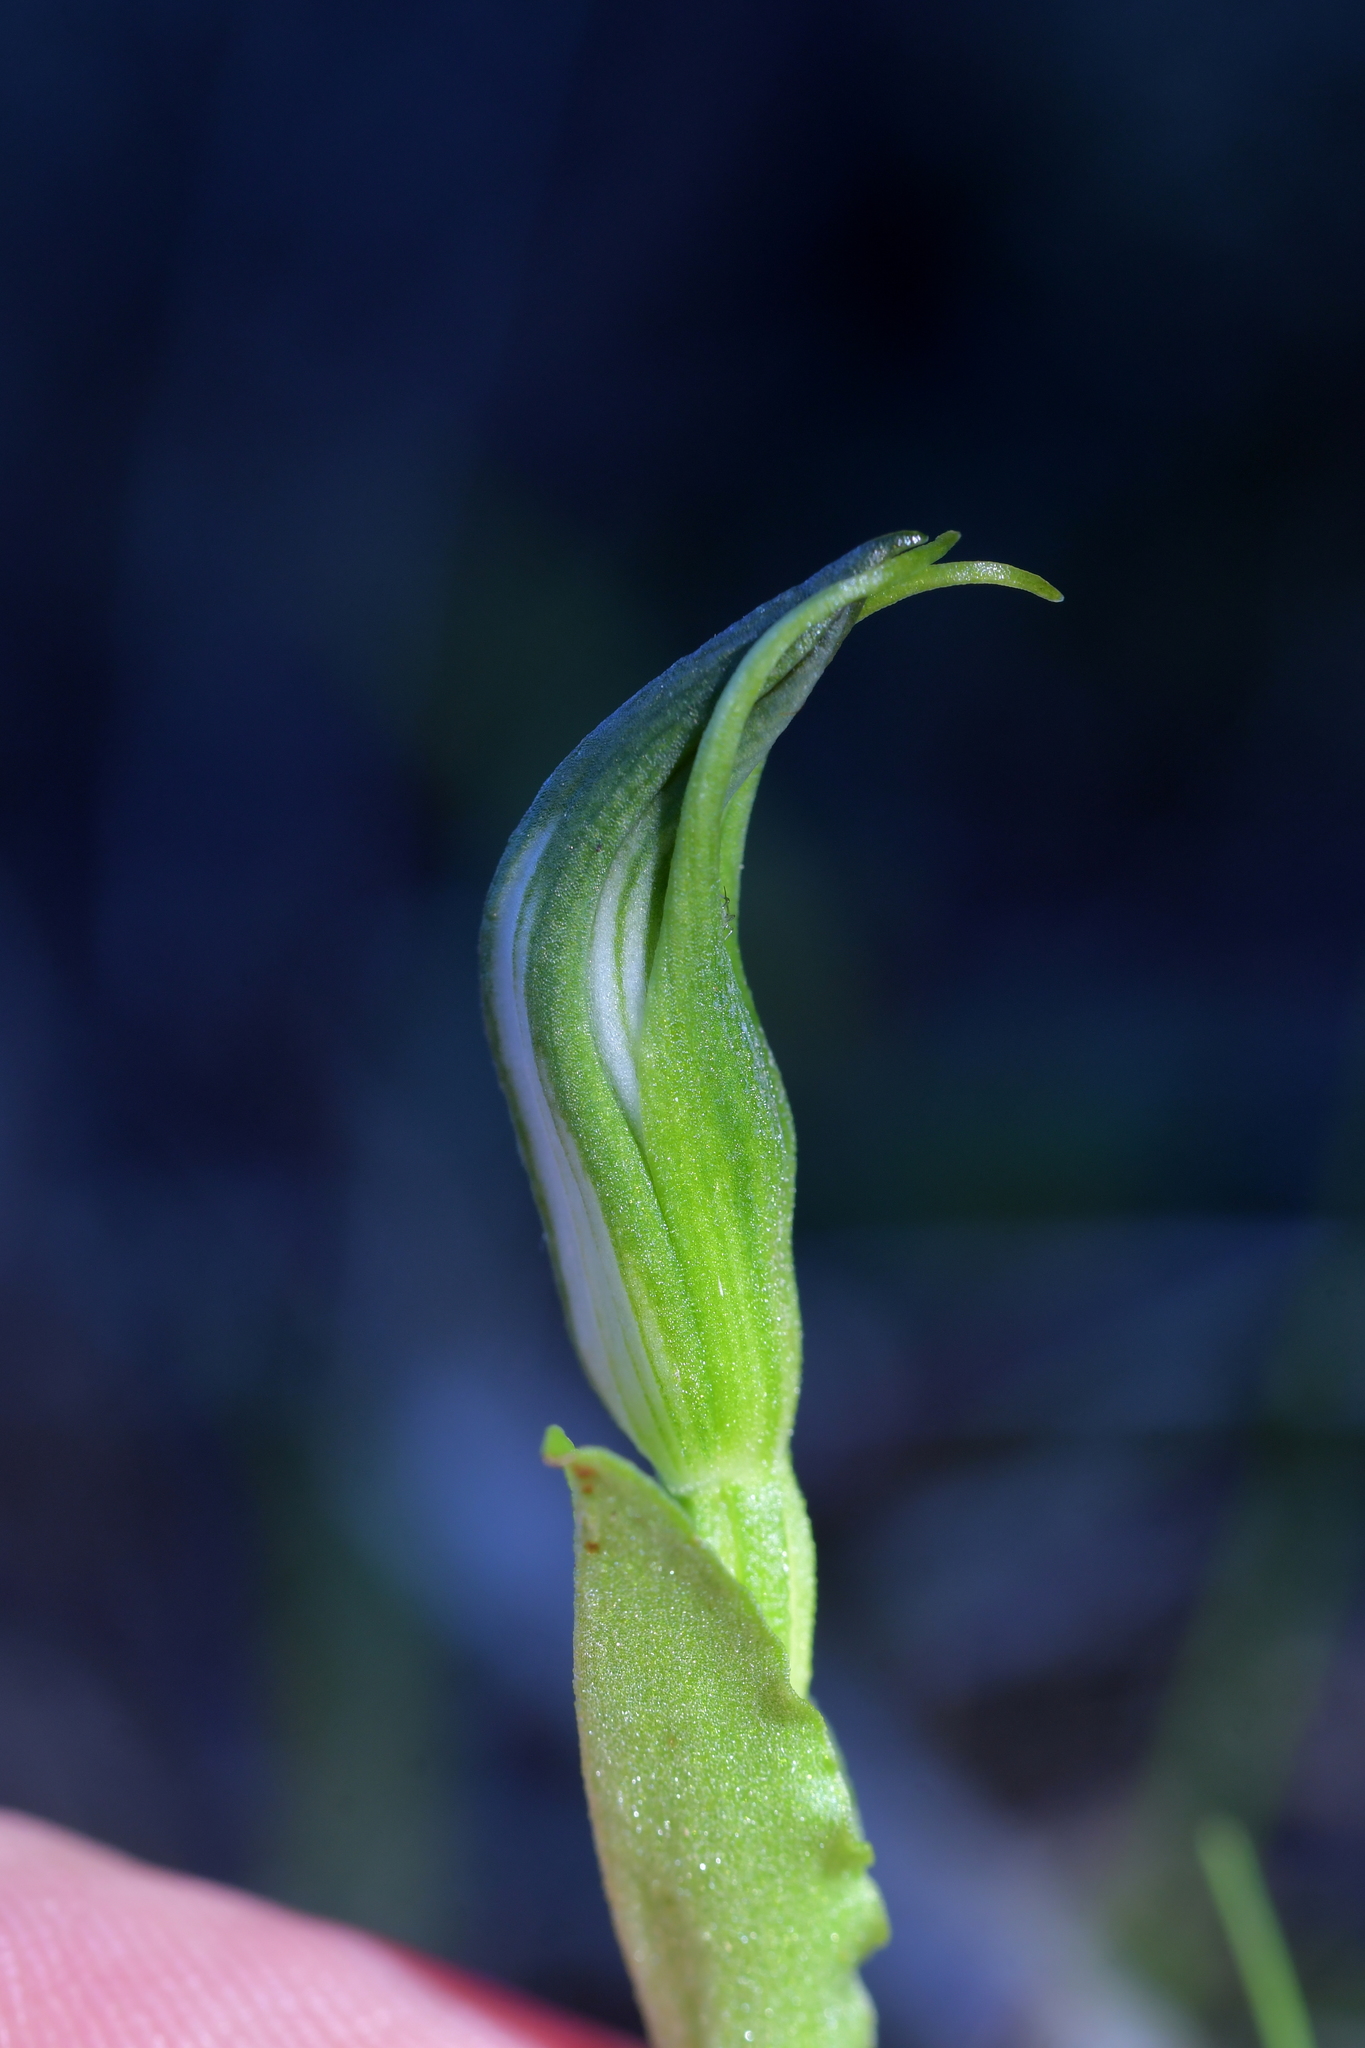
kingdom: Plantae
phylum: Tracheophyta
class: Liliopsida
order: Asparagales
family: Orchidaceae
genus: Pterostylis
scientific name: Pterostylis foliata
